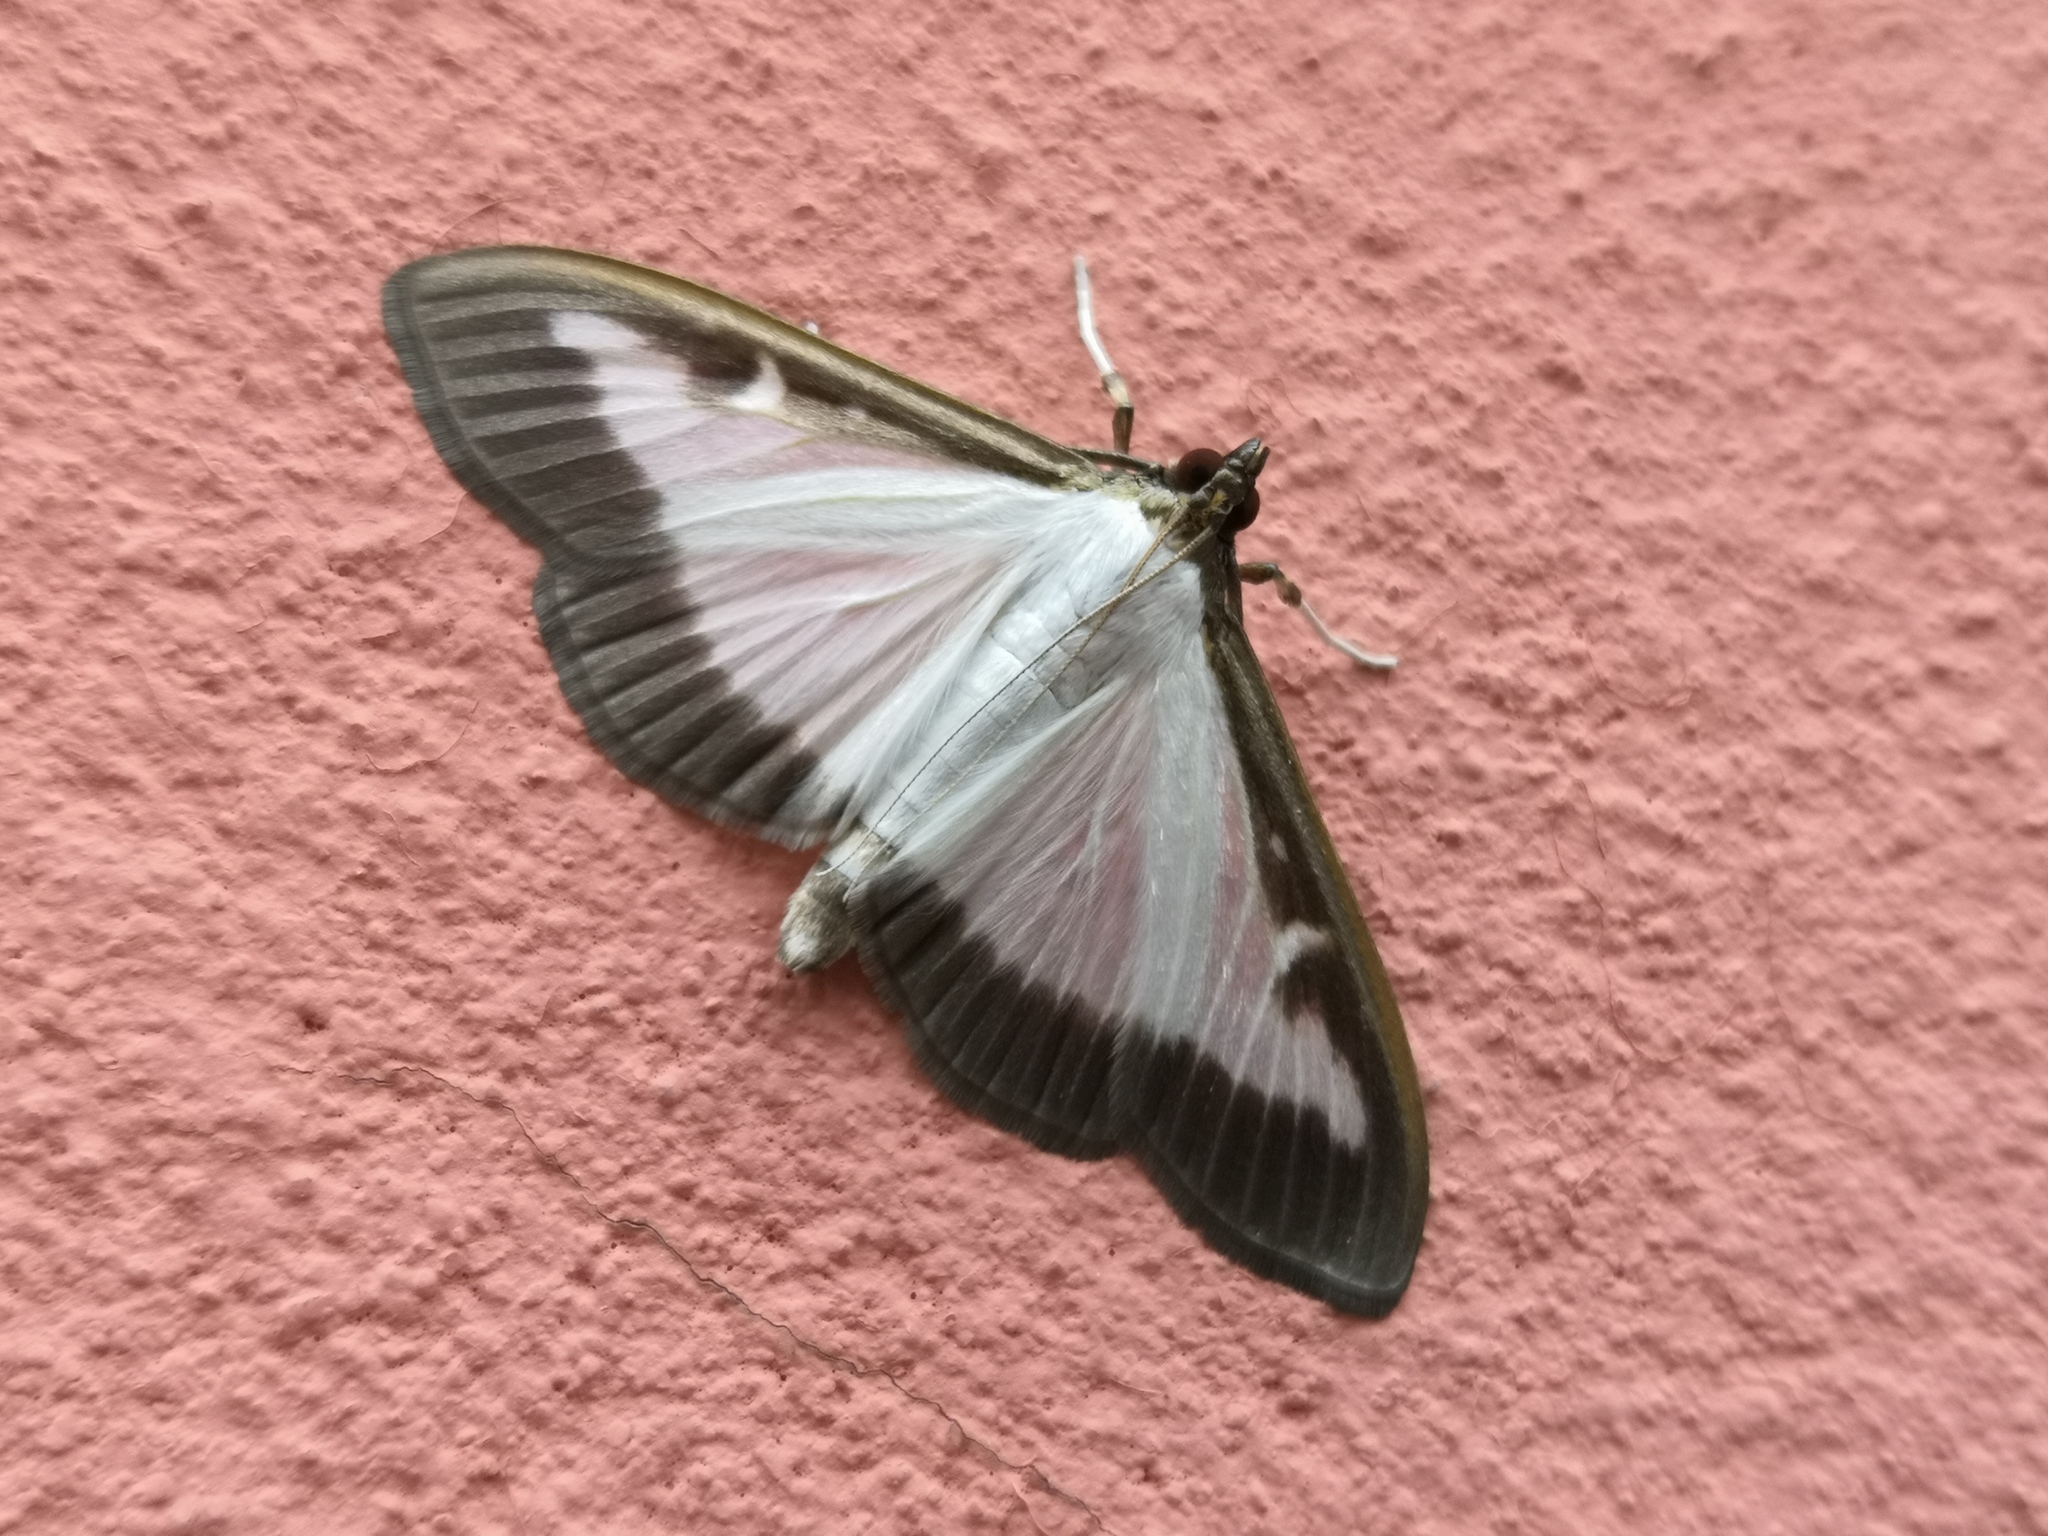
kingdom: Animalia
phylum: Arthropoda
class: Insecta
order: Lepidoptera
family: Crambidae
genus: Cydalima
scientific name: Cydalima perspectalis
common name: Box tree moth
